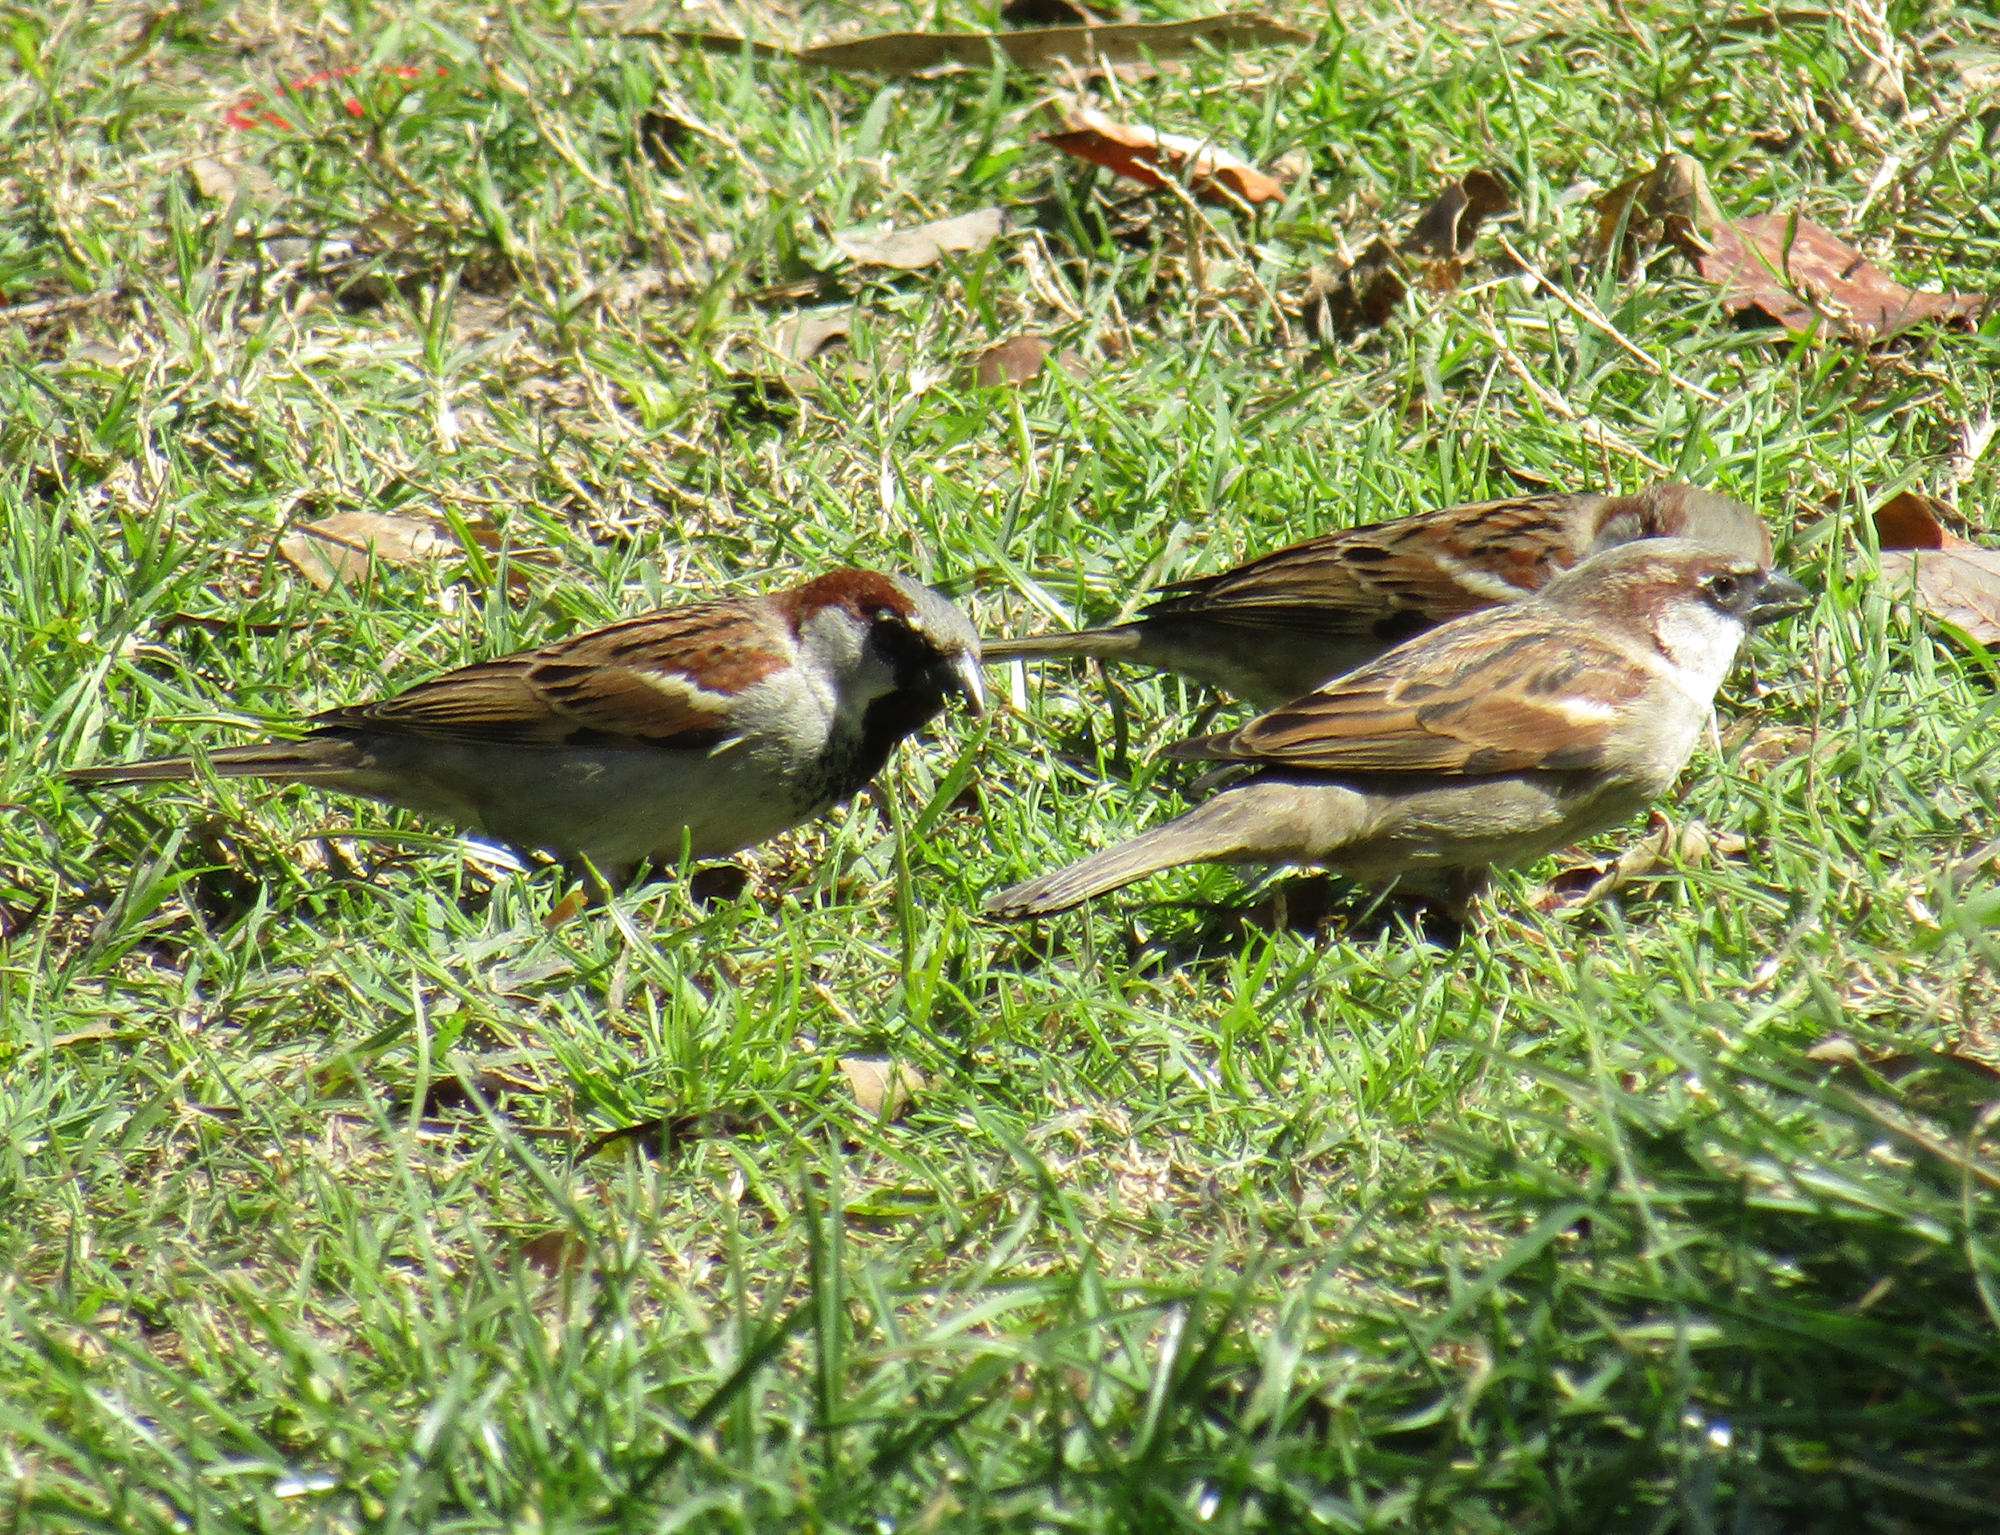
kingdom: Animalia
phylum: Chordata
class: Aves
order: Passeriformes
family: Passeridae
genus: Passer
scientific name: Passer domesticus
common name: House sparrow
